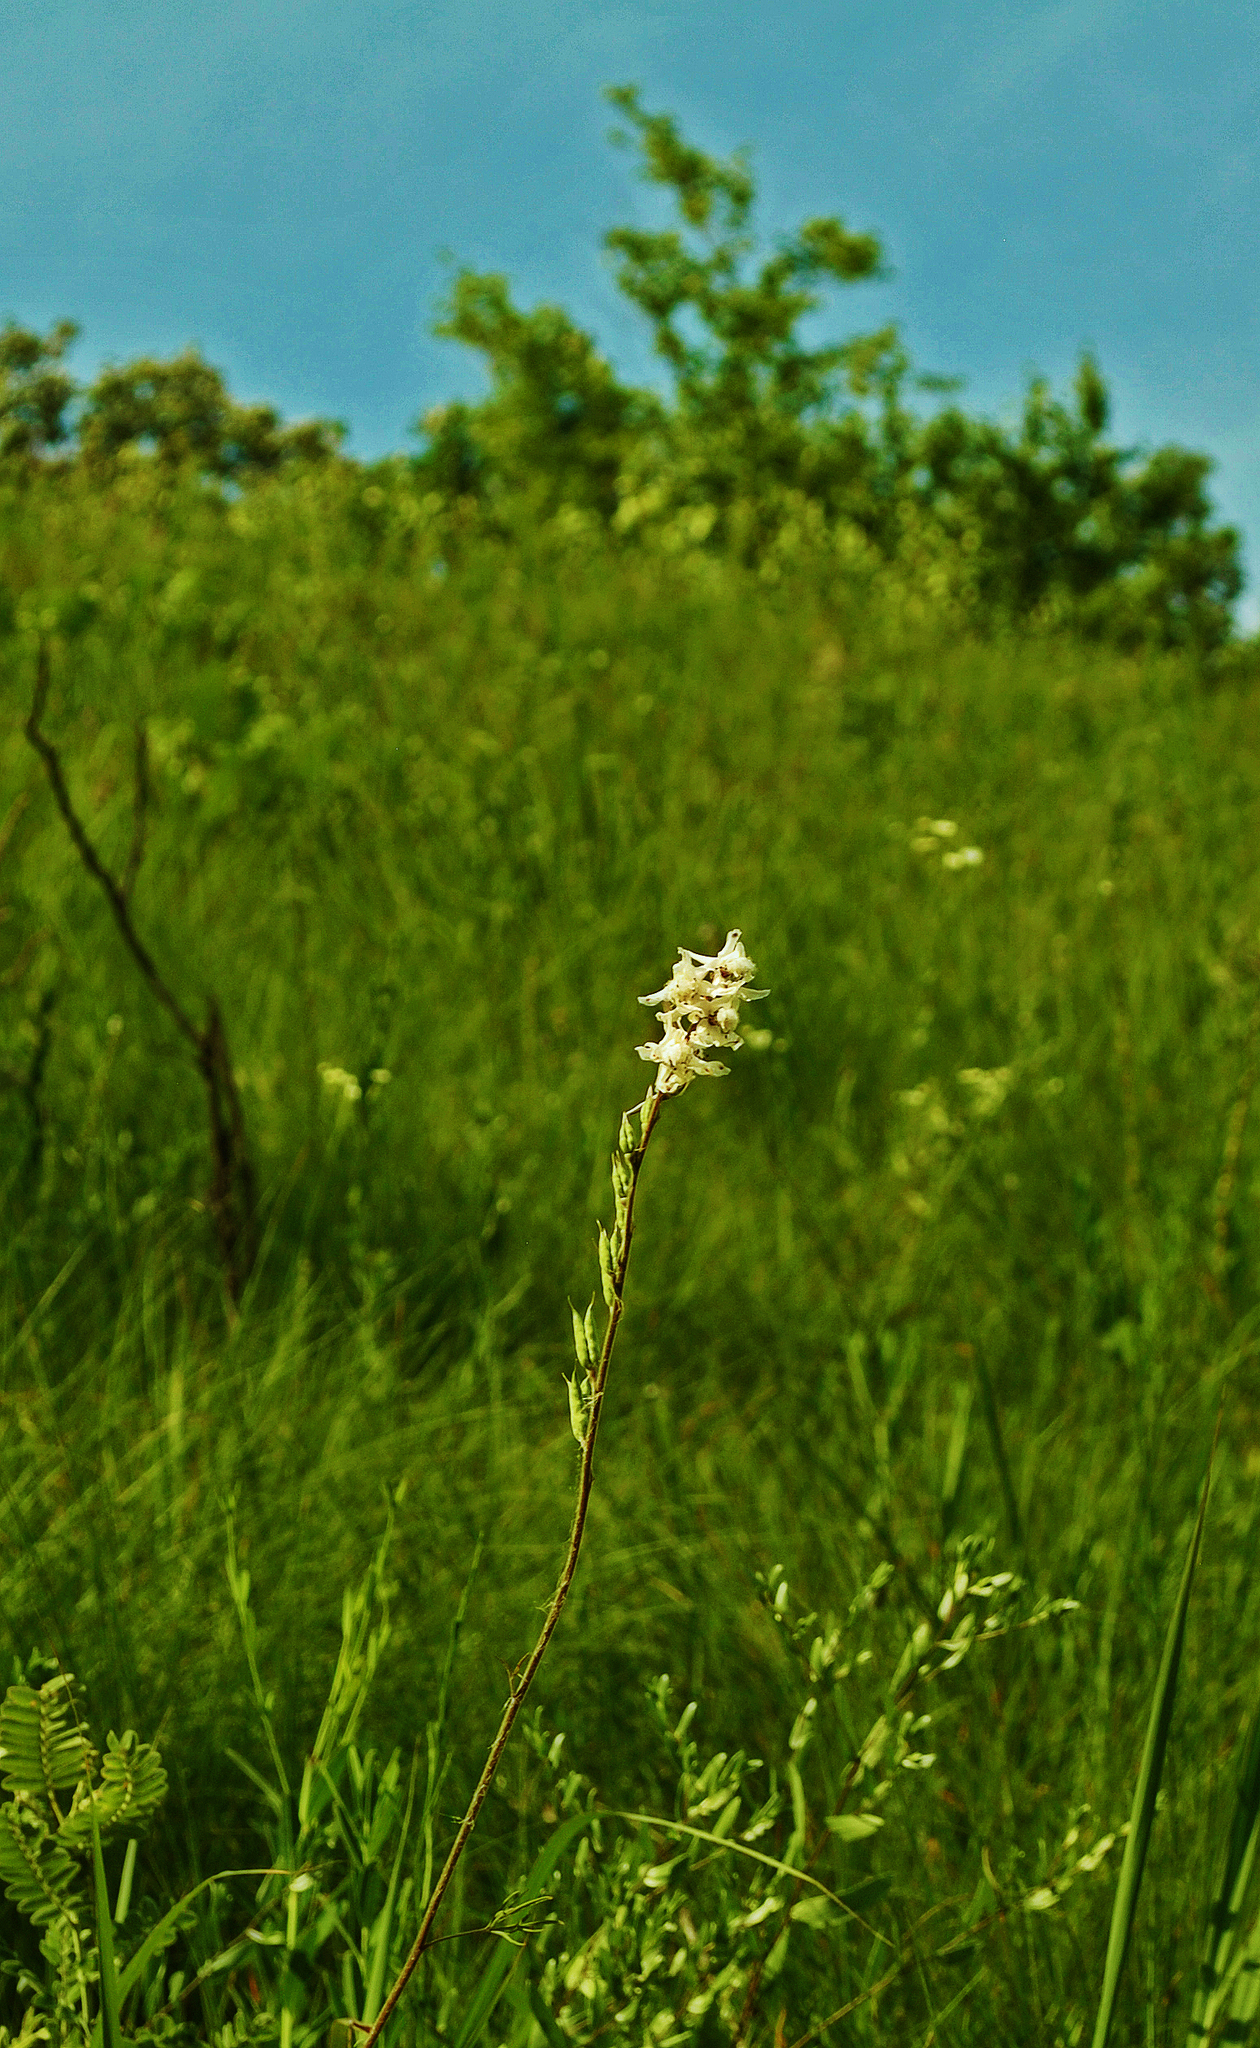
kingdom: Plantae
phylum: Tracheophyta
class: Magnoliopsida
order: Ranunculales
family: Ranunculaceae
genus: Delphinium
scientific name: Delphinium carolinianum
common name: Carolina larkspur
